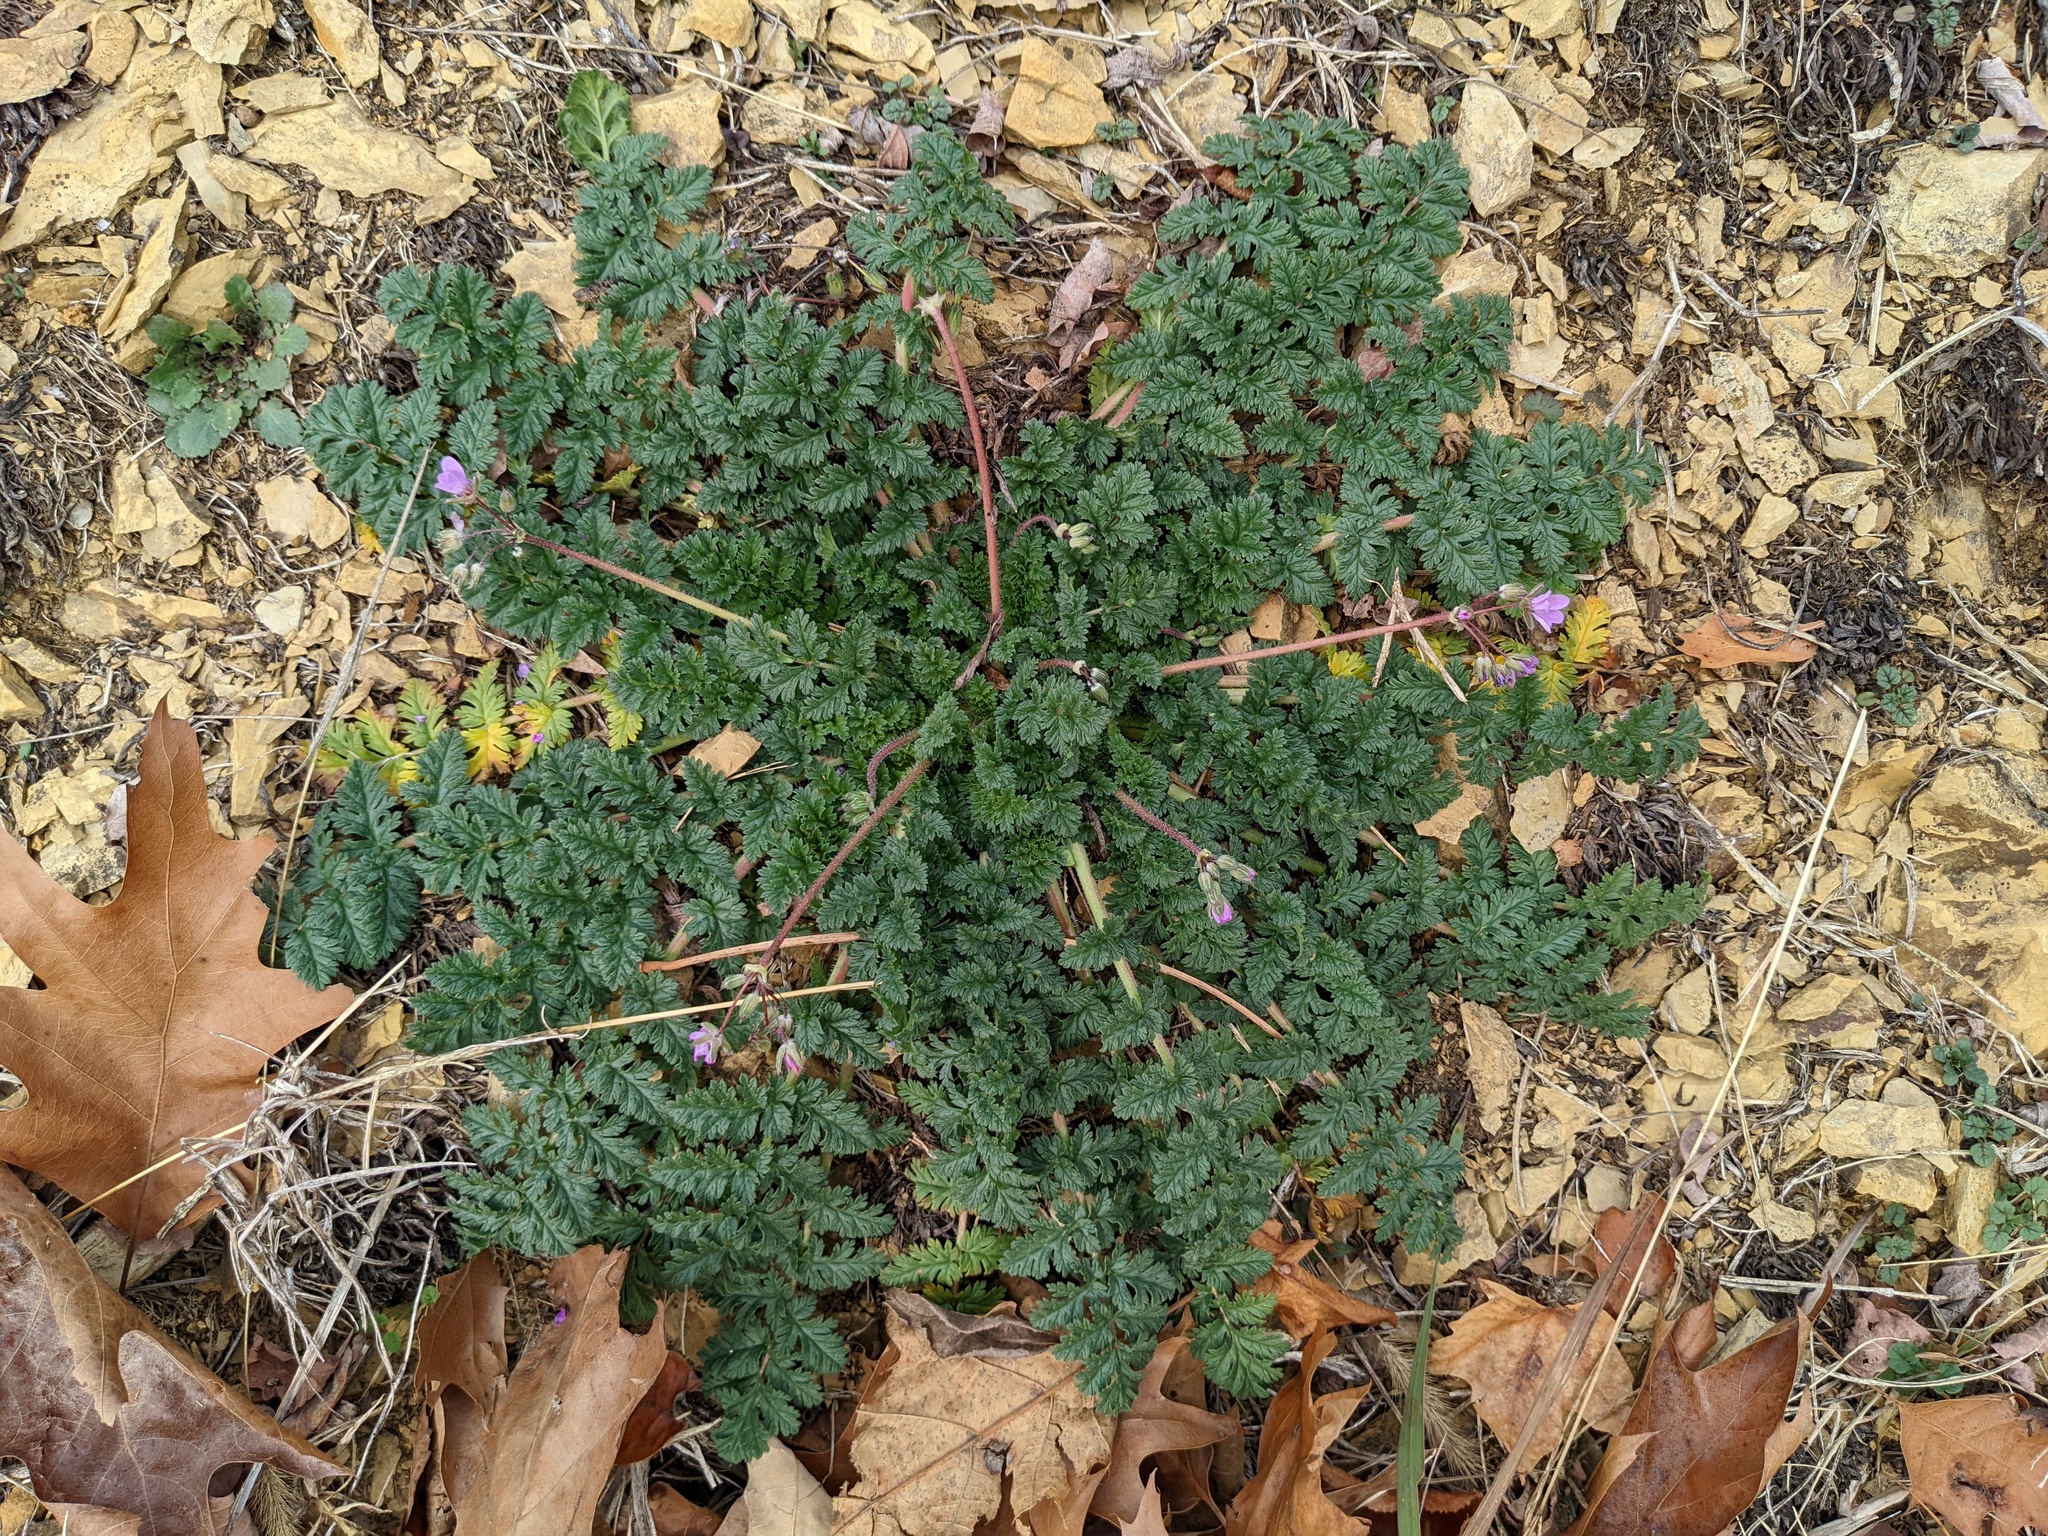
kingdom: Plantae
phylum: Tracheophyta
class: Magnoliopsida
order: Geraniales
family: Geraniaceae
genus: Erodium
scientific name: Erodium cicutarium
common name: Common stork's-bill
